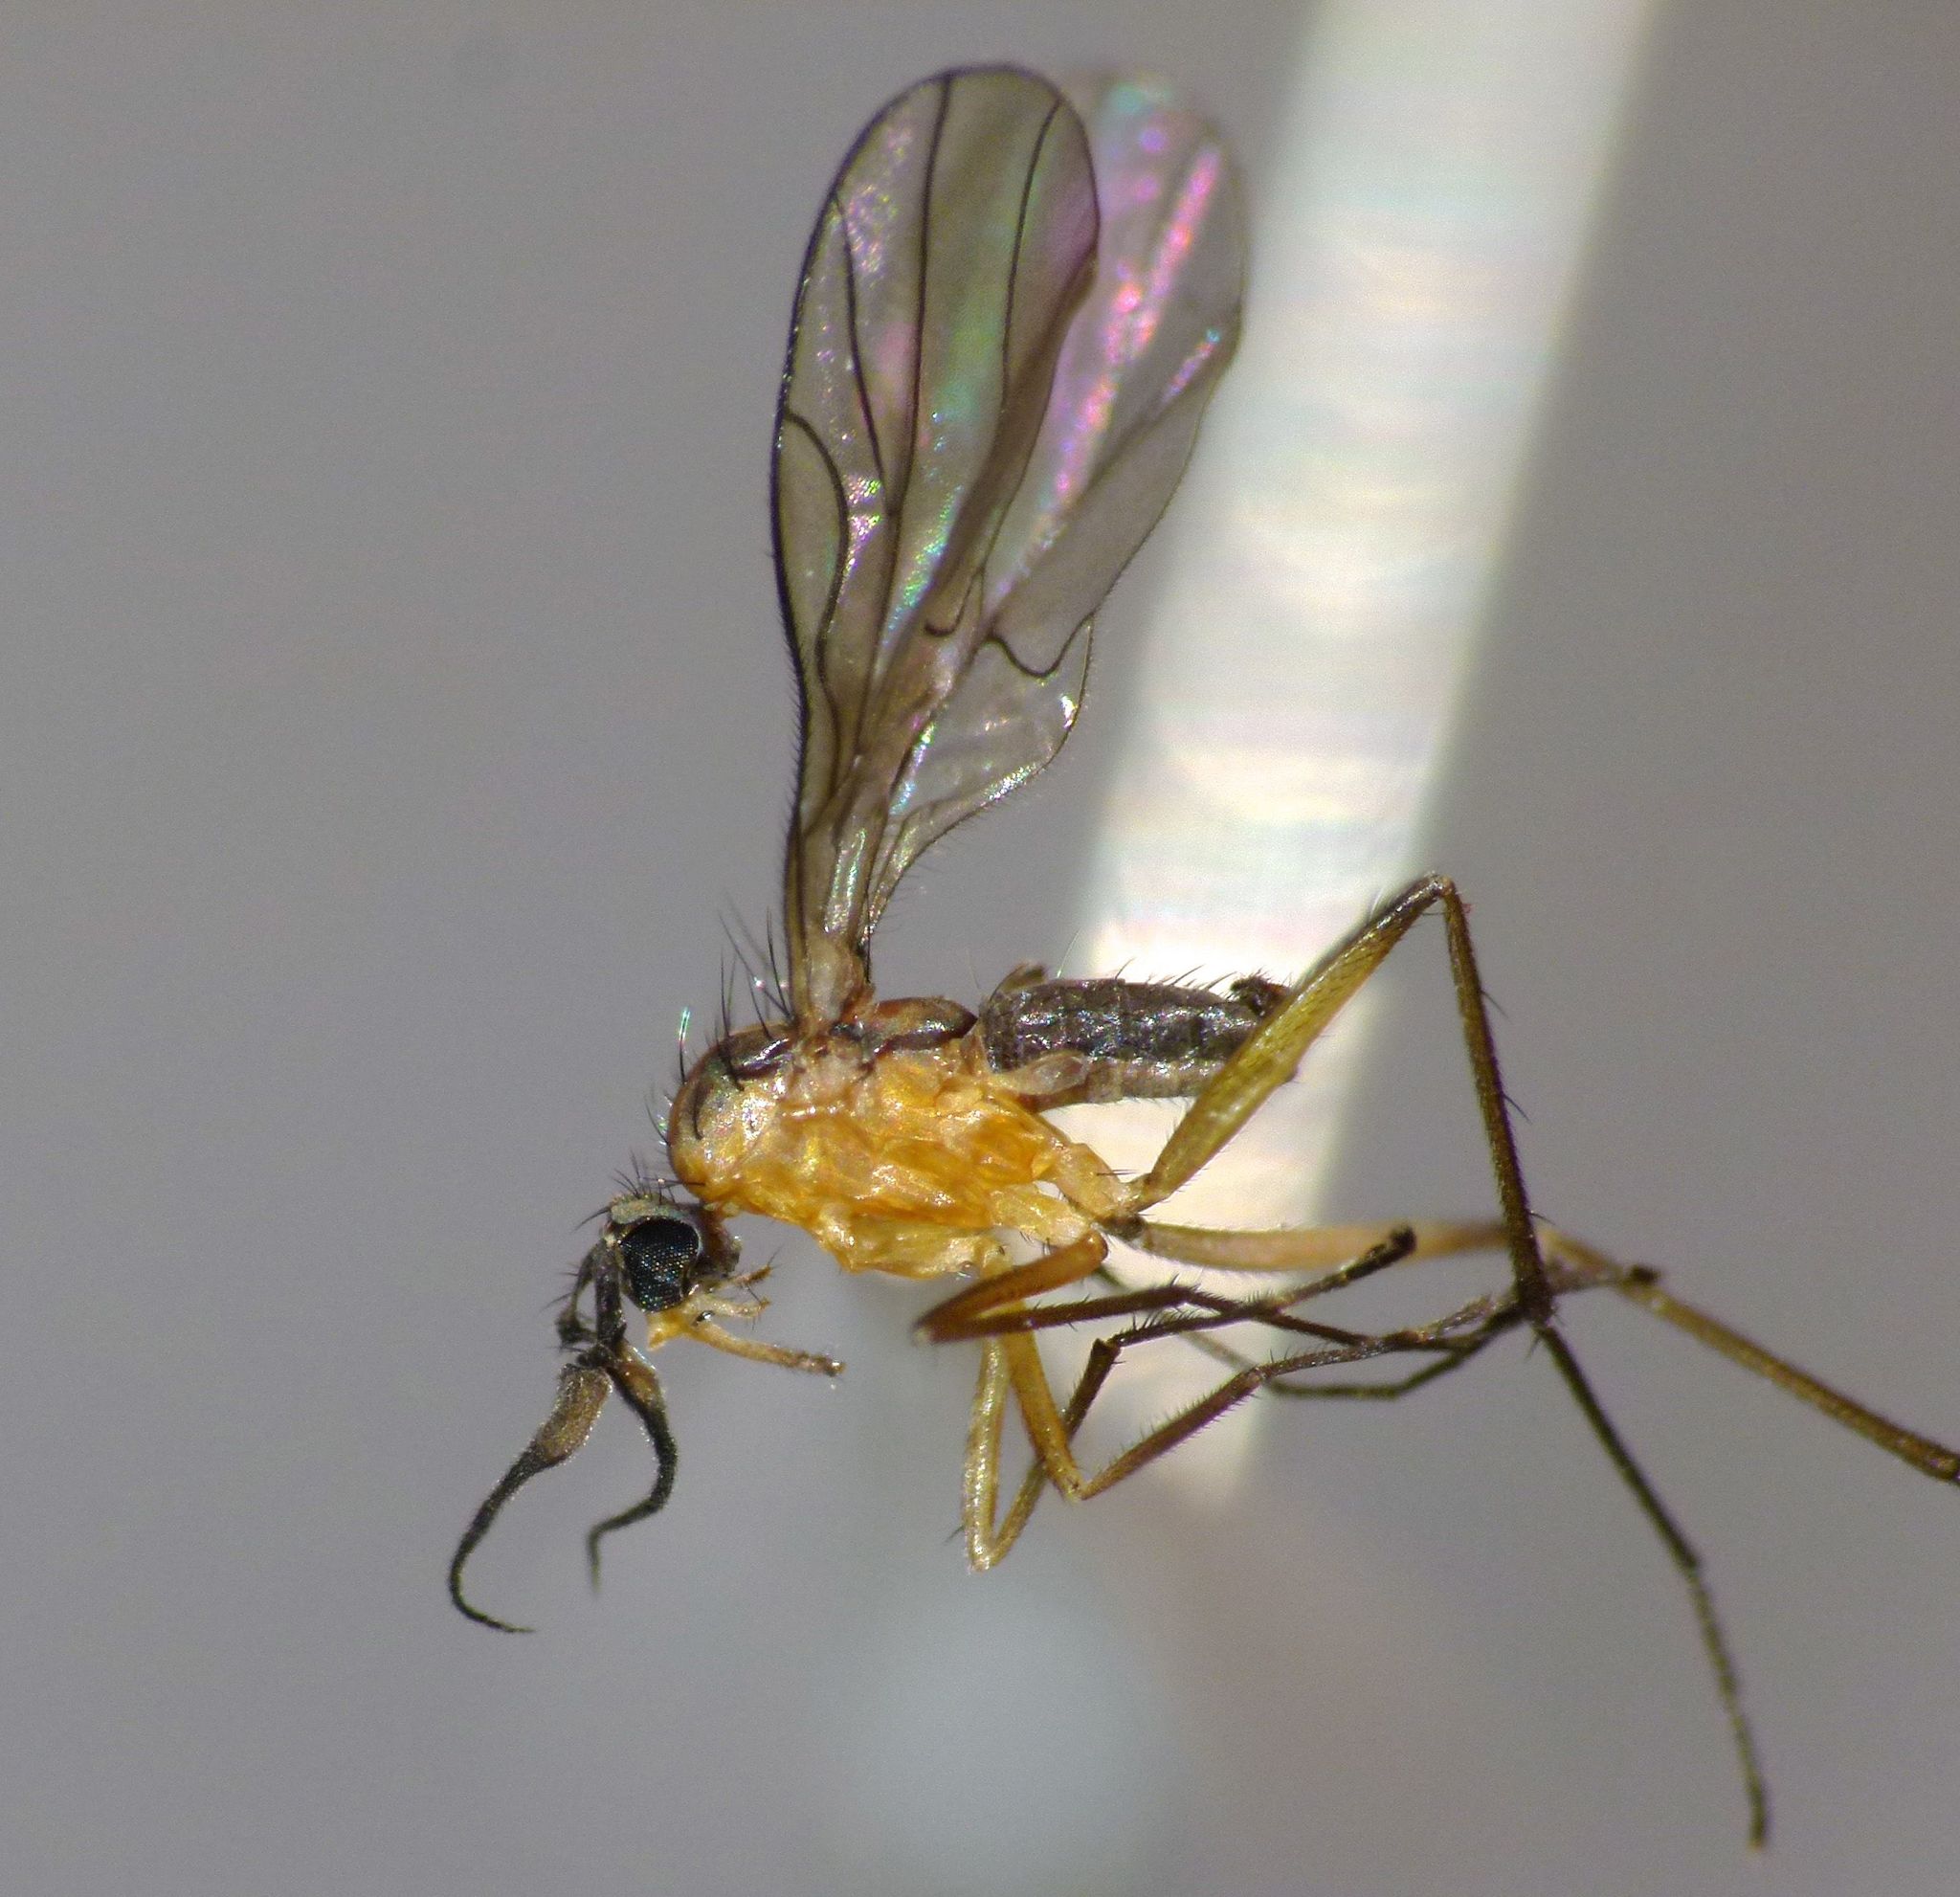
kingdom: Animalia
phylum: Arthropoda
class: Insecta
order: Diptera
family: Brachystomatidae
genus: Ceratomerus
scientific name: Ceratomerus prodigiosus
